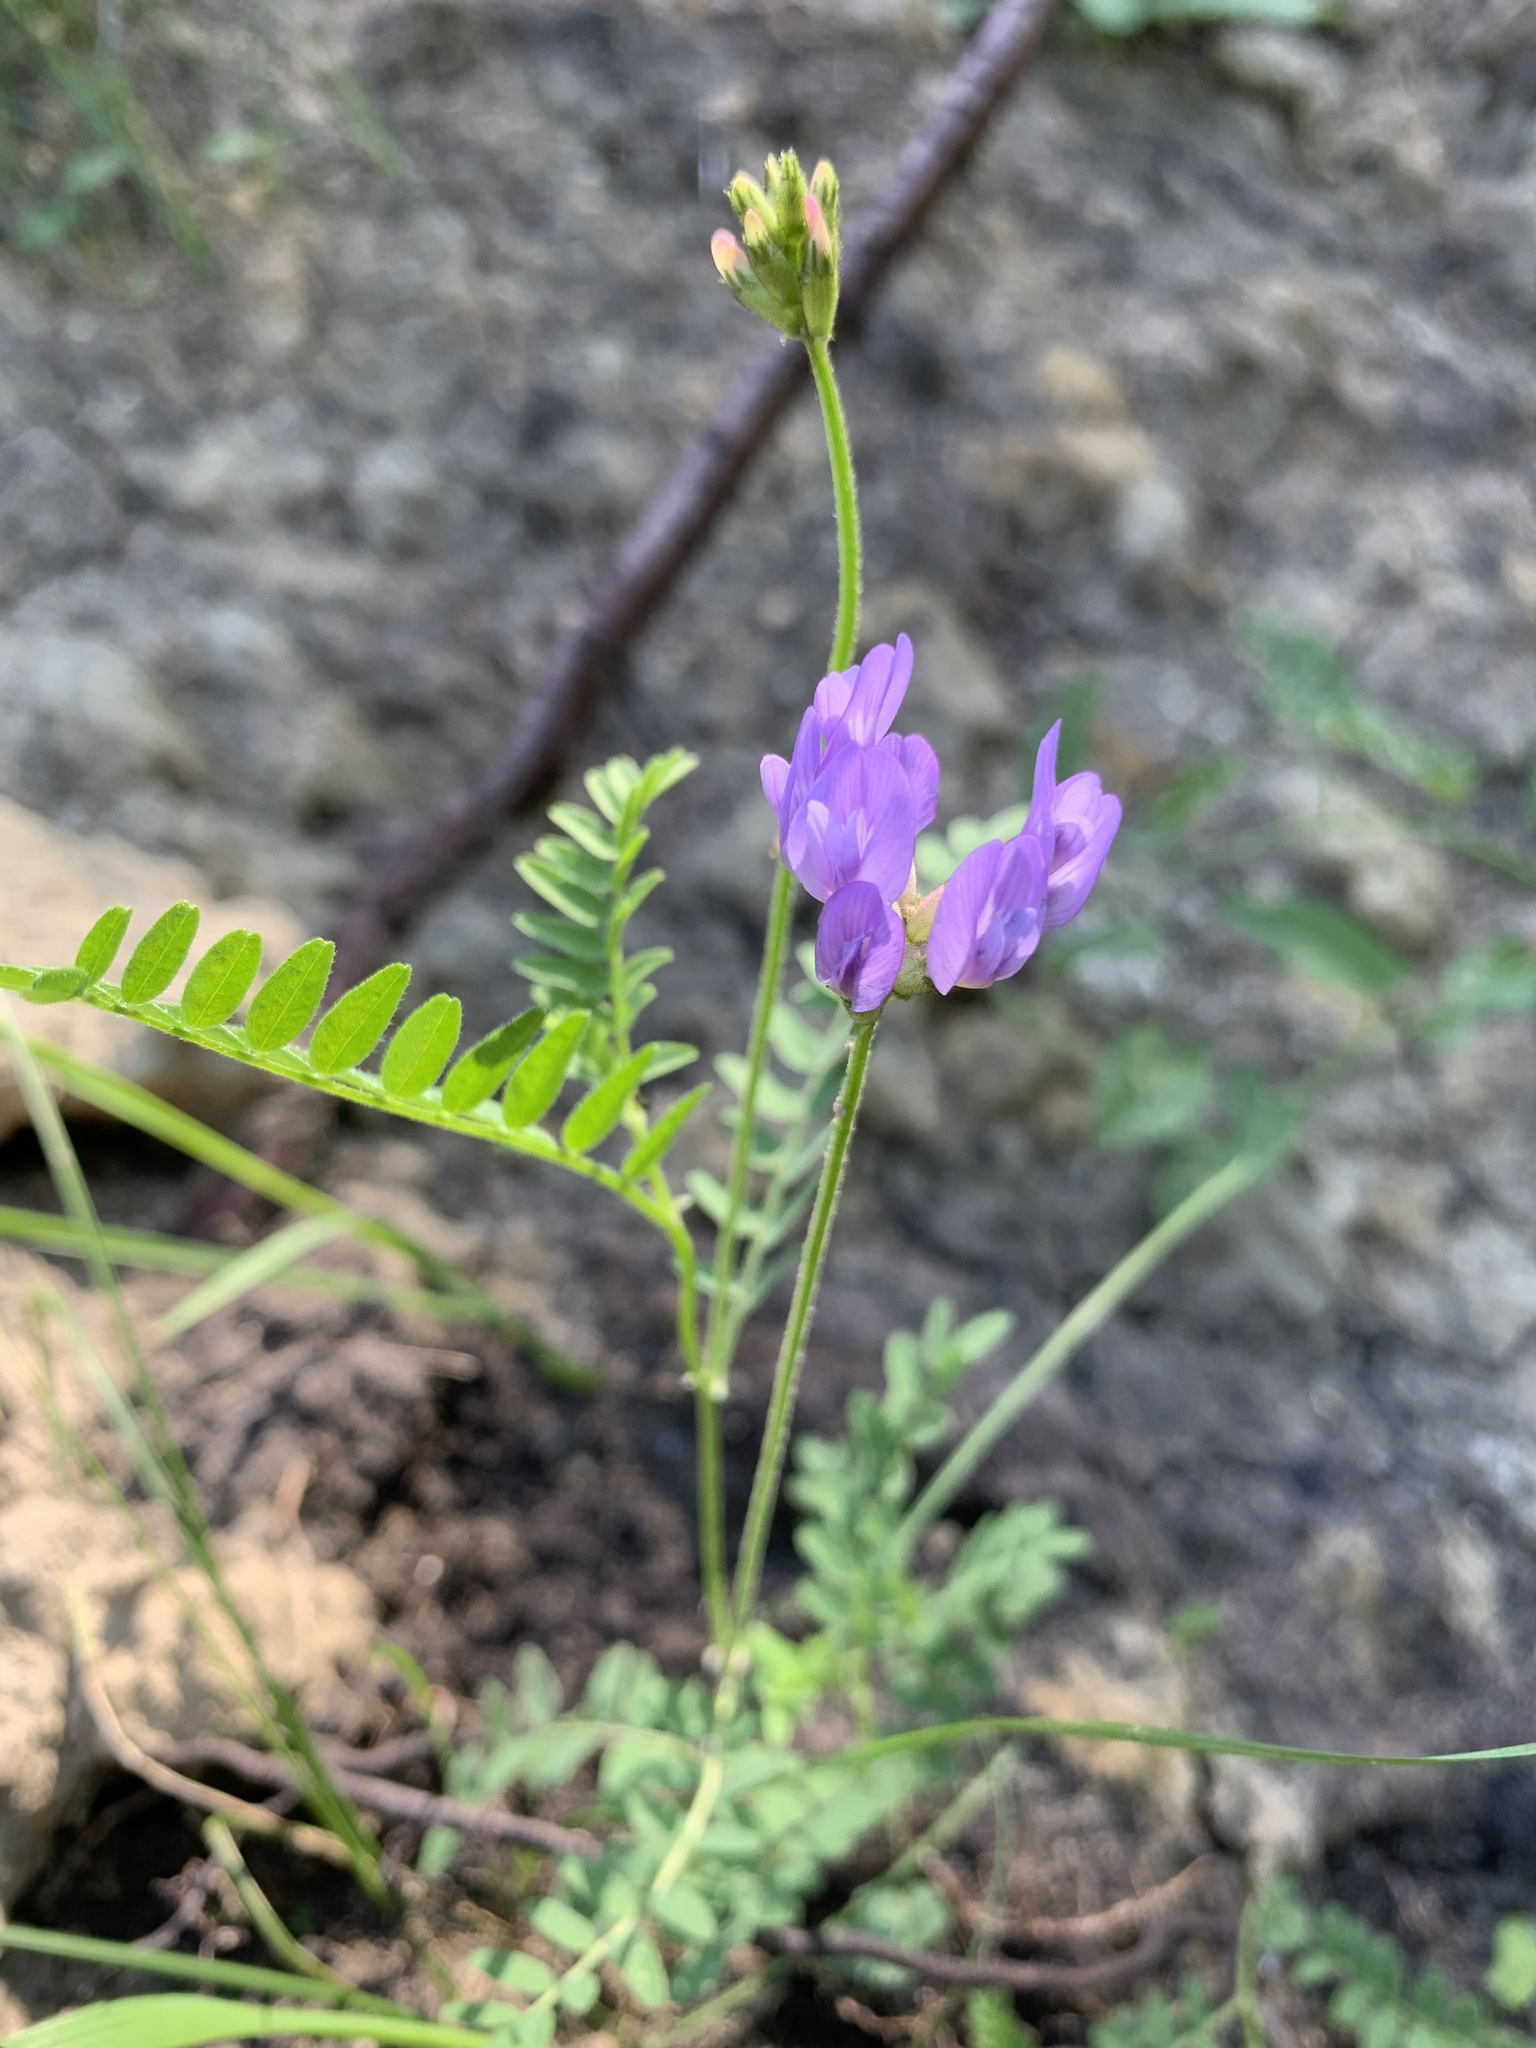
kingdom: Plantae
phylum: Tracheophyta
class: Magnoliopsida
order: Fabales
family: Fabaceae
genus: Astragalus
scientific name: Astragalus danicus
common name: Purple milk-vetch
